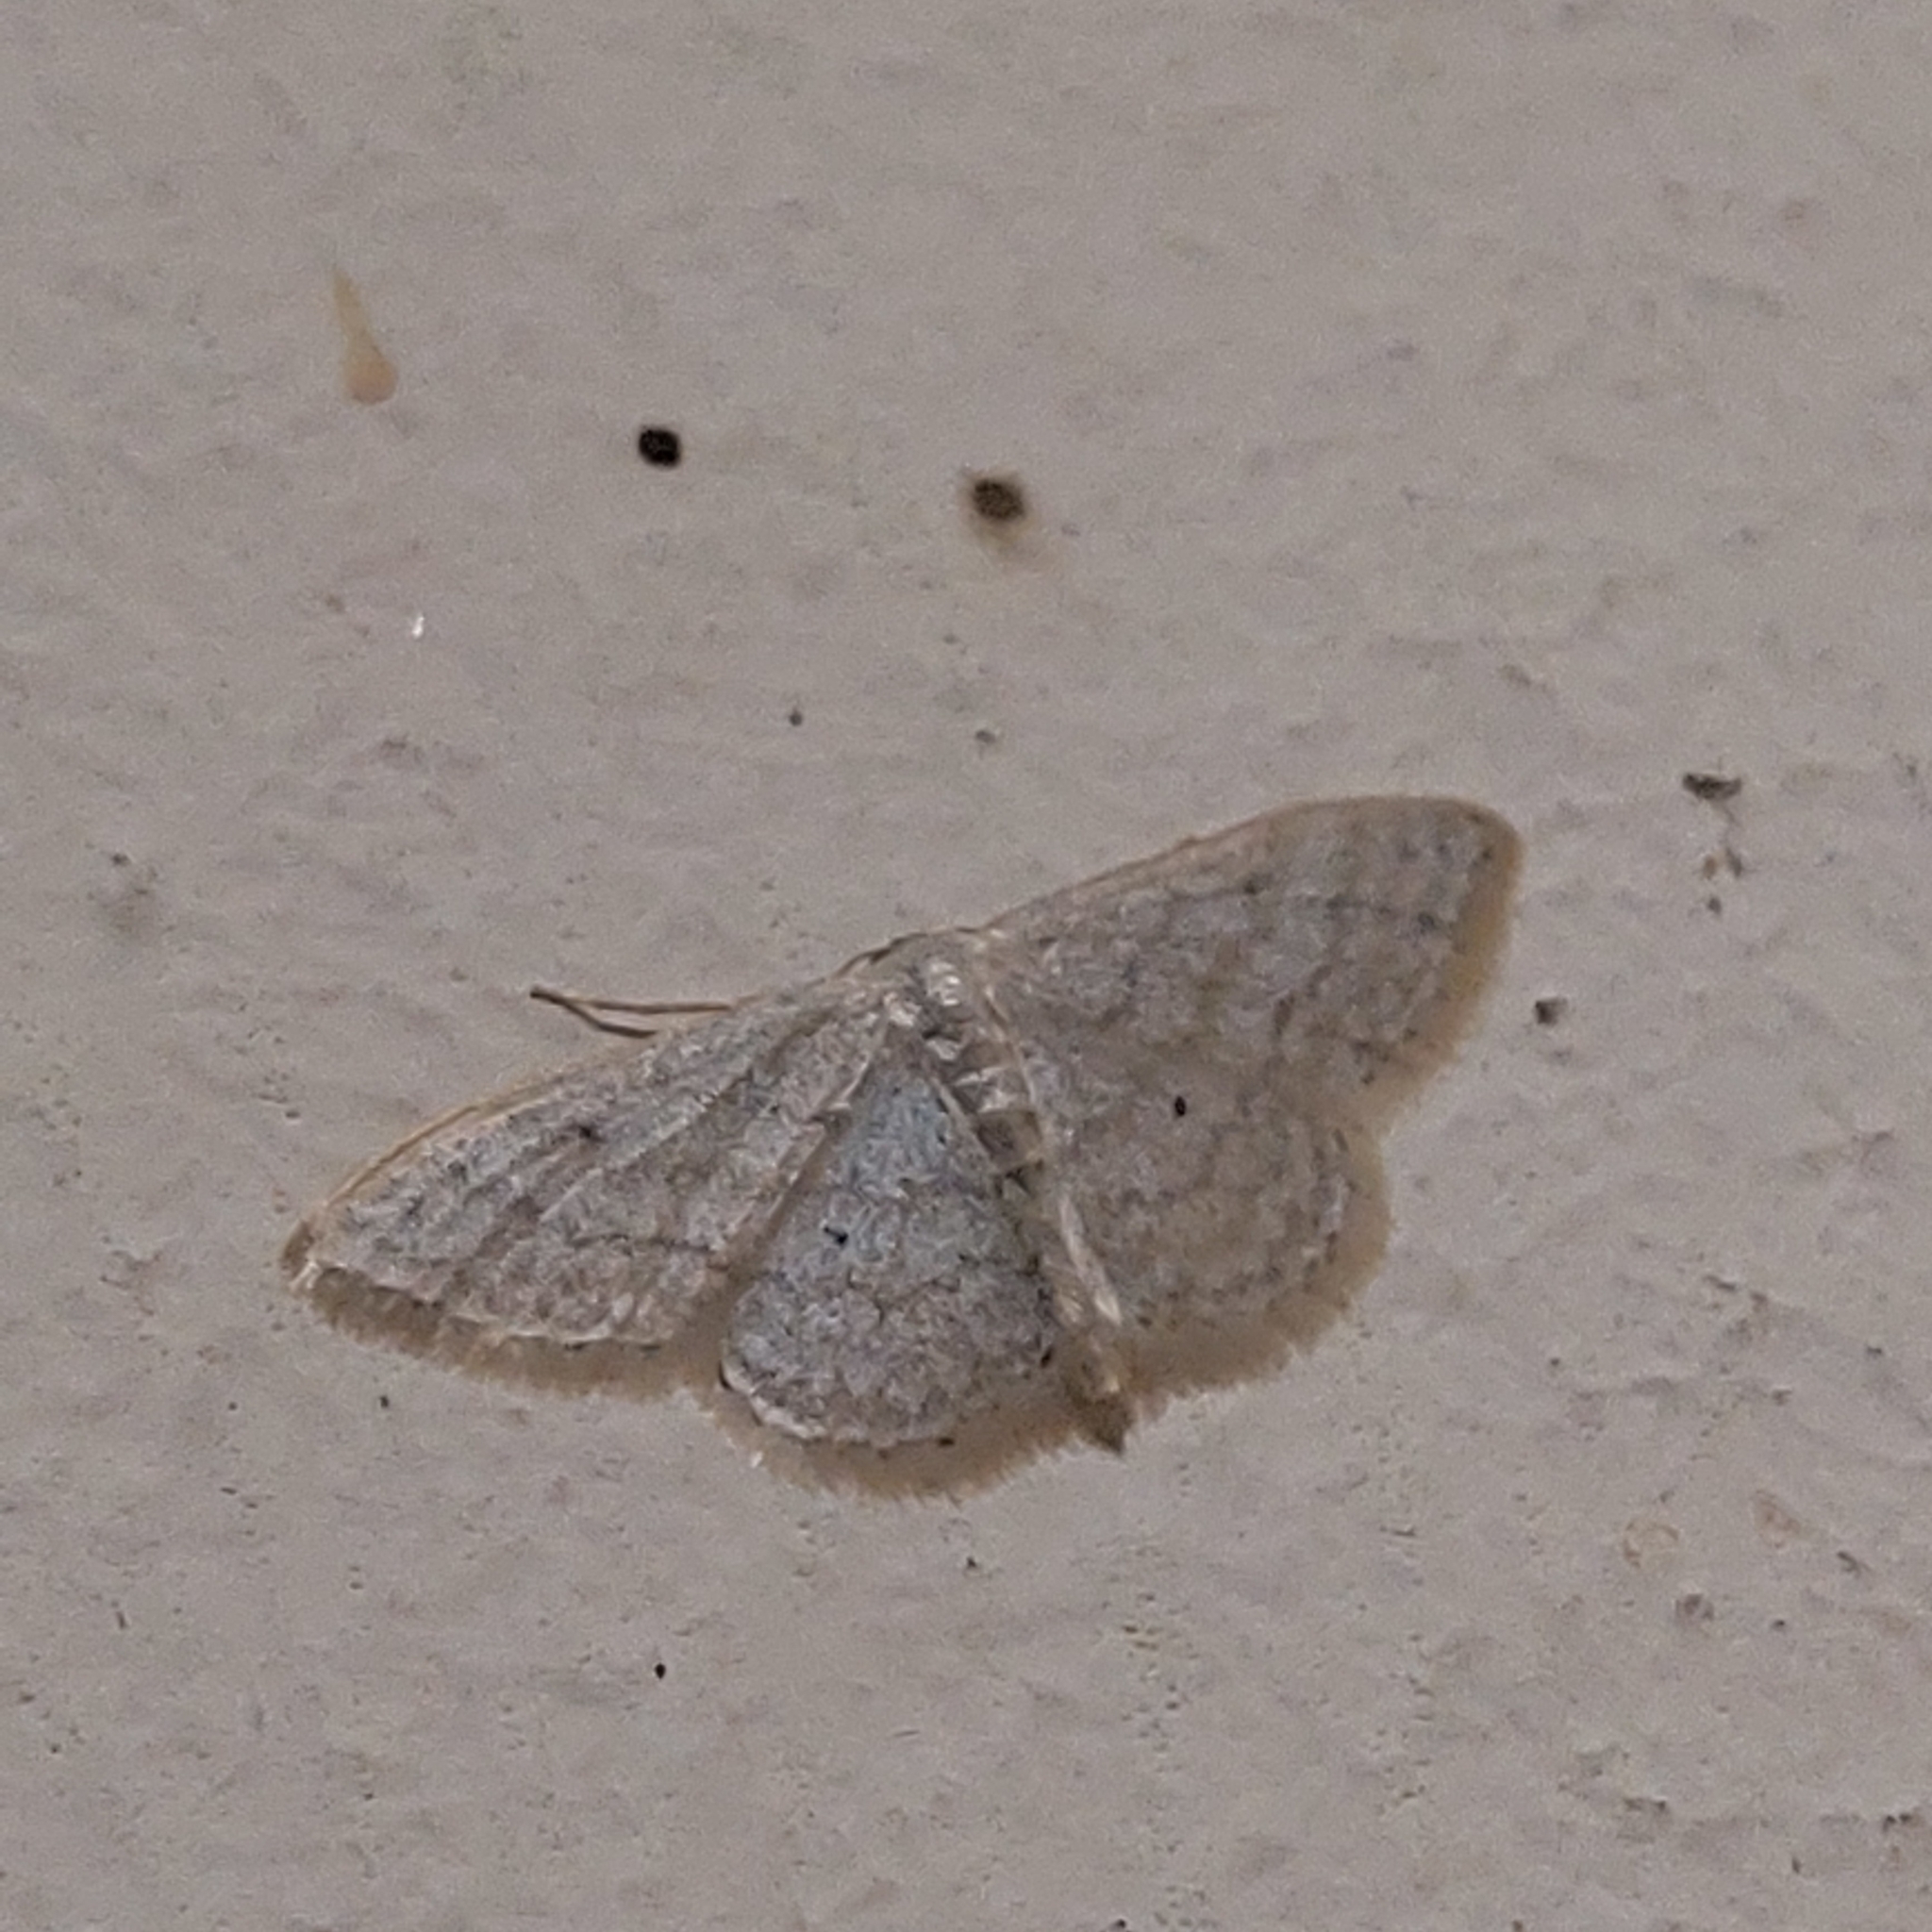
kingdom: Animalia
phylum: Arthropoda
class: Insecta
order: Lepidoptera
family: Geometridae
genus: Idaea
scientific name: Idaea subsericeata
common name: Satin wave
